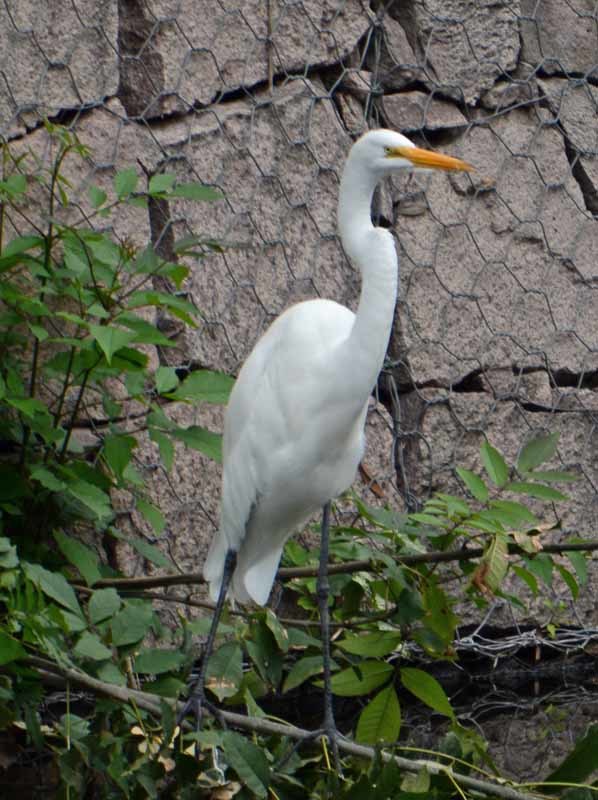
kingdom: Animalia
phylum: Chordata
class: Aves
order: Pelecaniformes
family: Ardeidae
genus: Ardea
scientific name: Ardea alba
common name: Great egret
